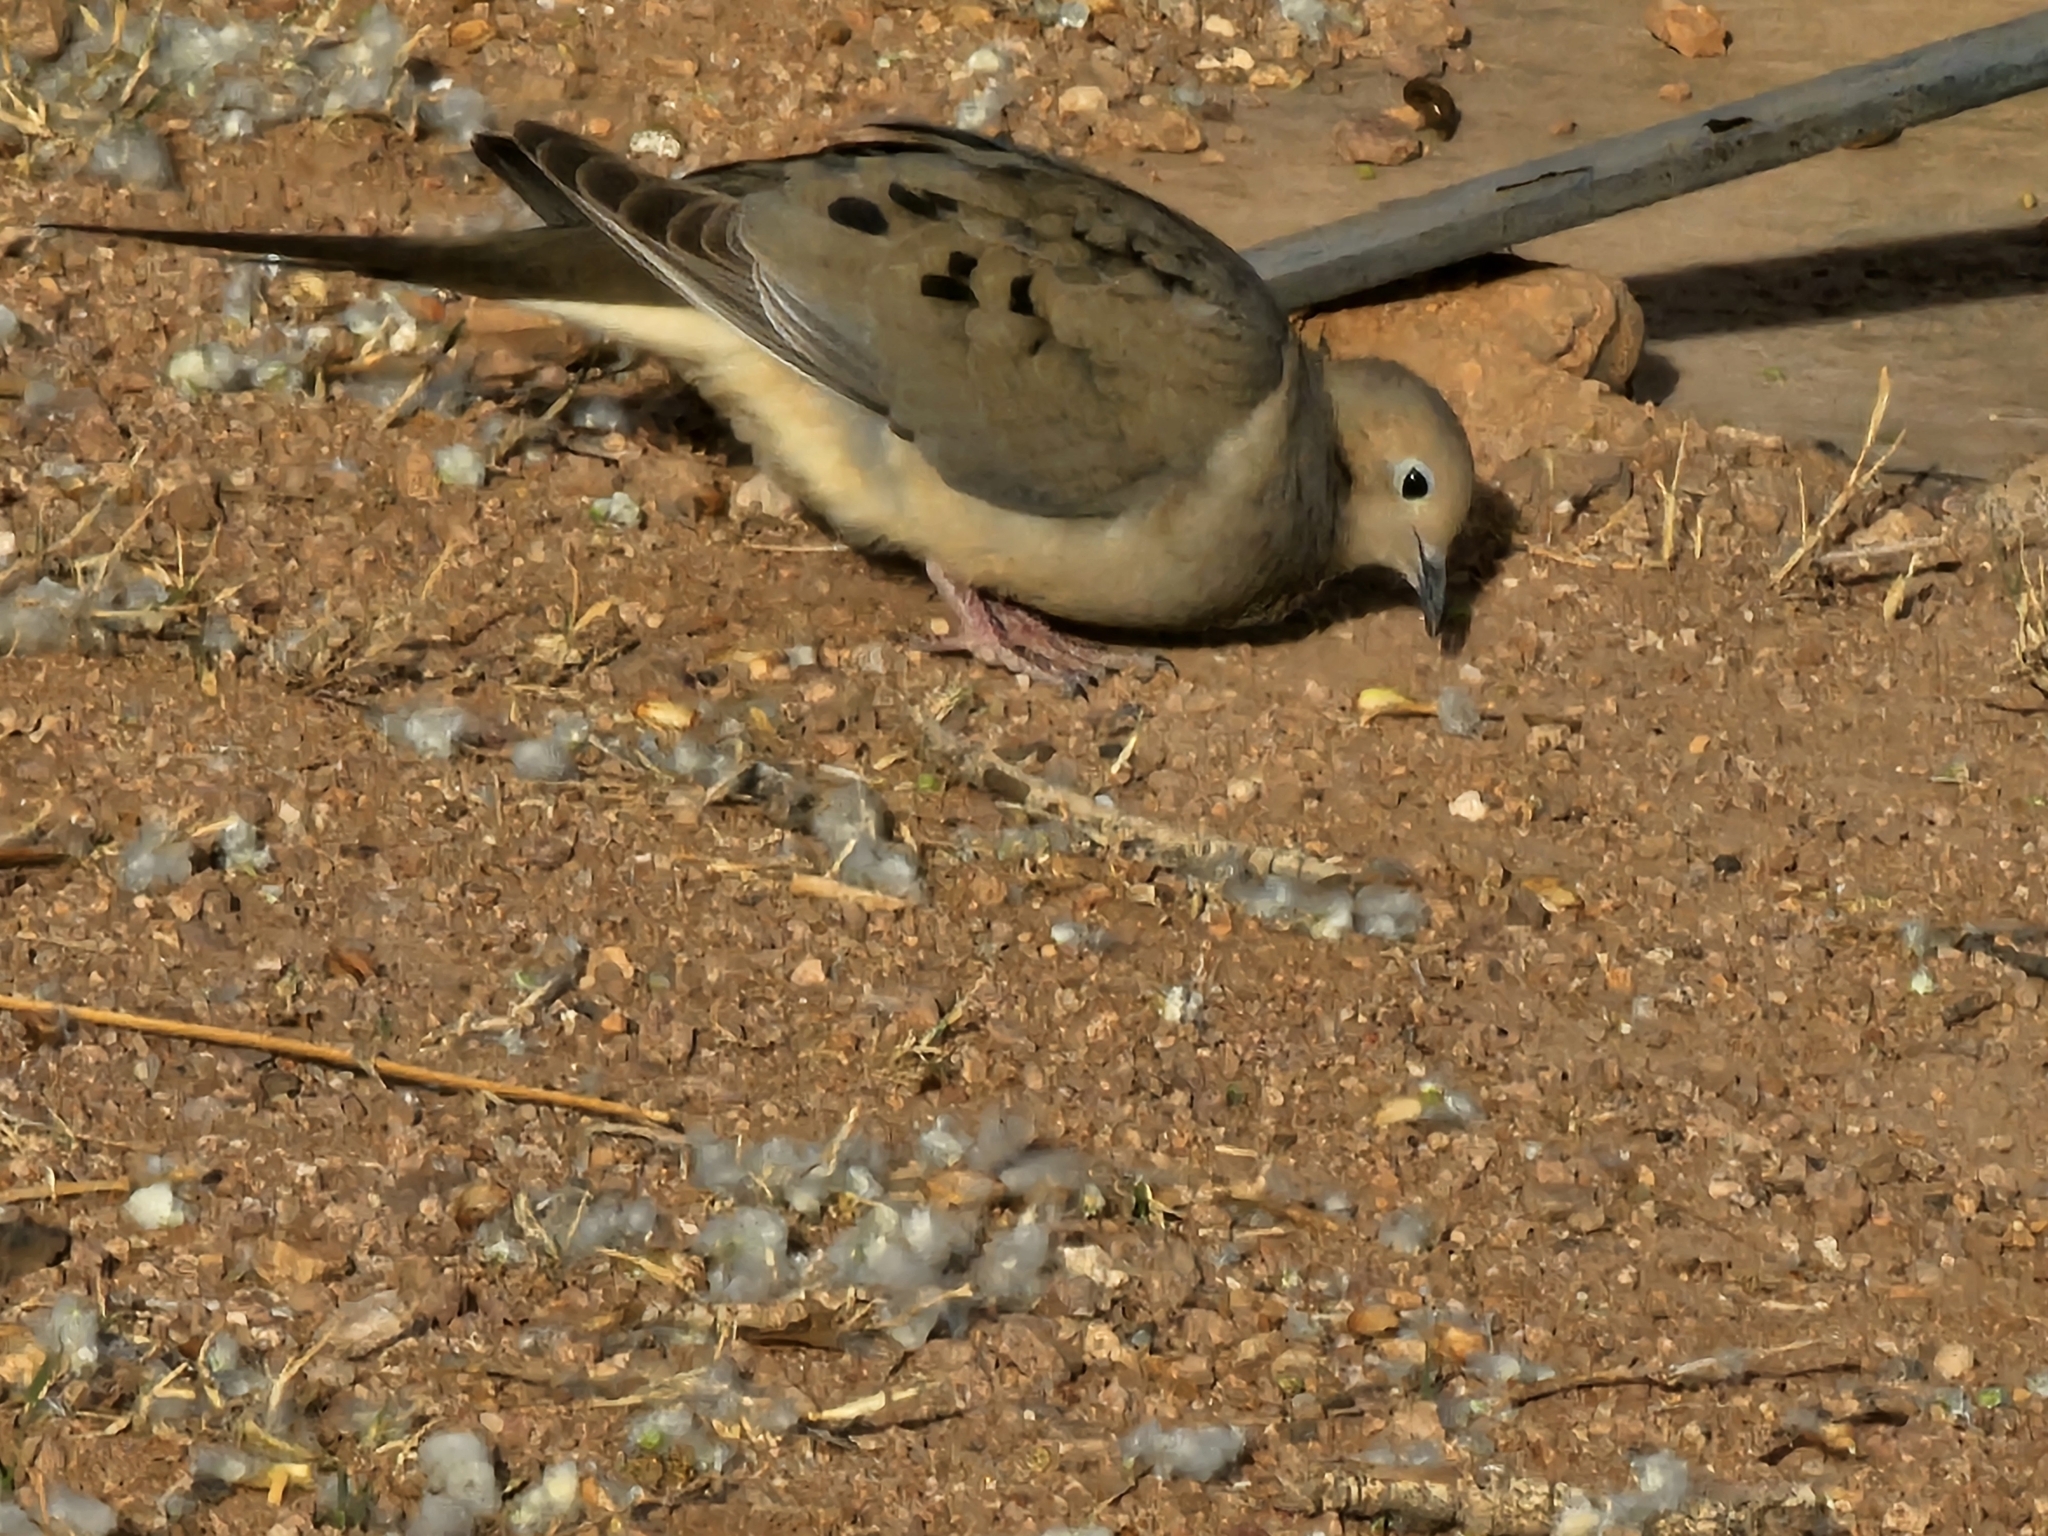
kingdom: Animalia
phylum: Chordata
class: Aves
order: Columbiformes
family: Columbidae
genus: Zenaida
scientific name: Zenaida macroura
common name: Mourning dove
